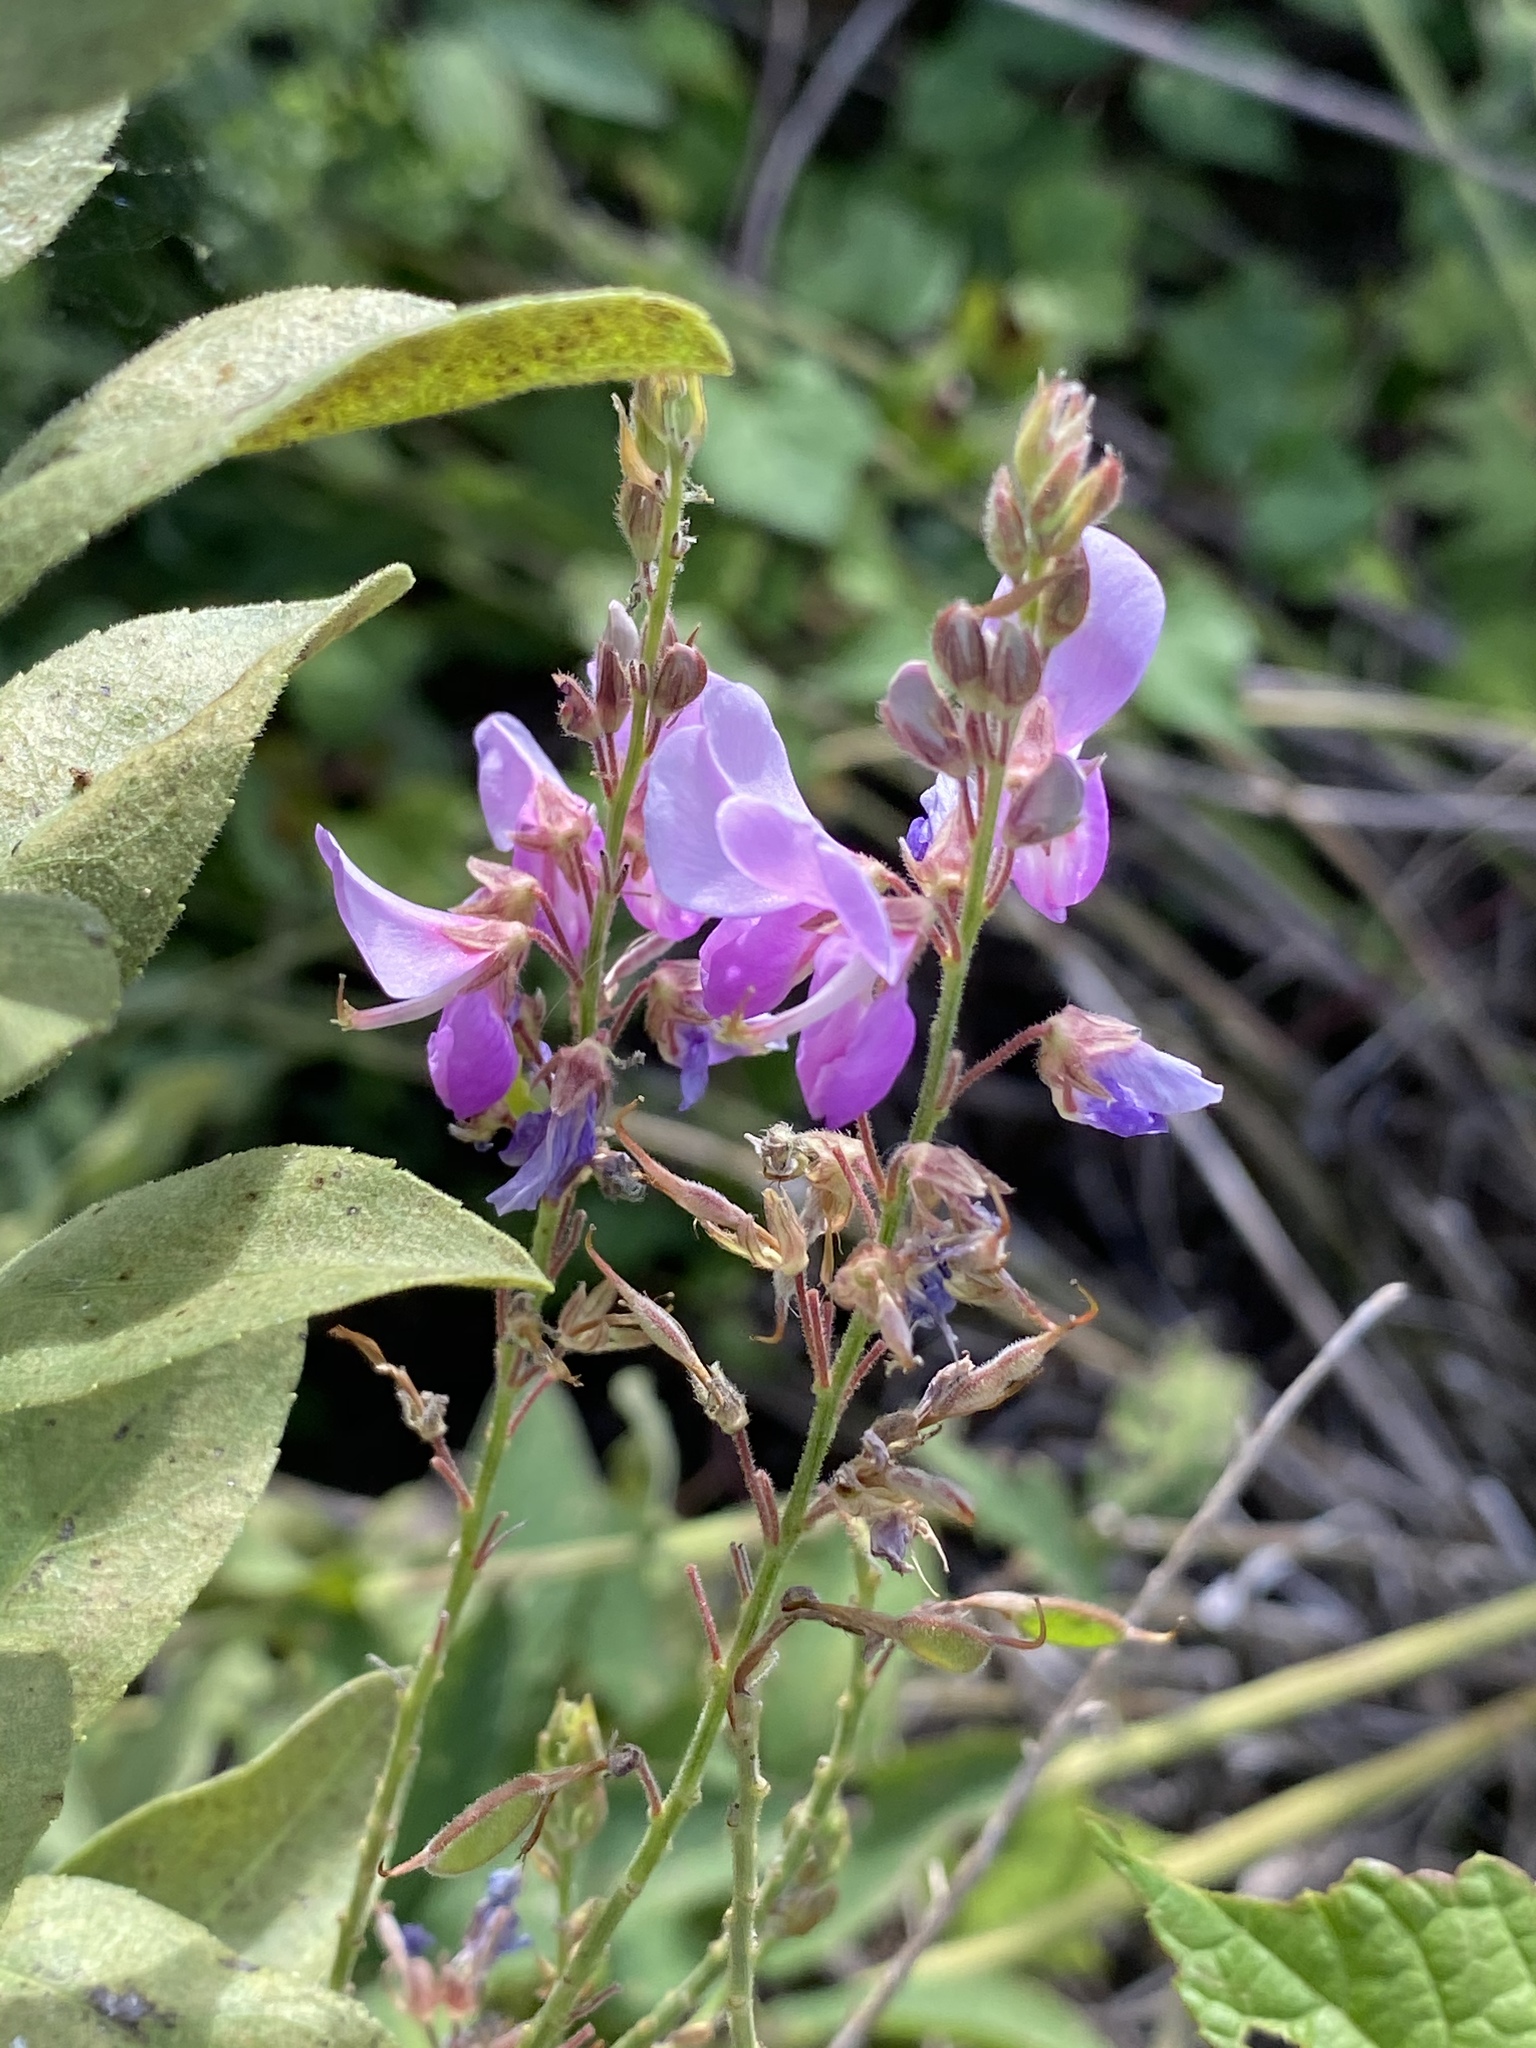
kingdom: Plantae
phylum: Tracheophyta
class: Magnoliopsida
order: Fabales
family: Fabaceae
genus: Desmodium
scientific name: Desmodium canadense
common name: Canada tick-trefoil
